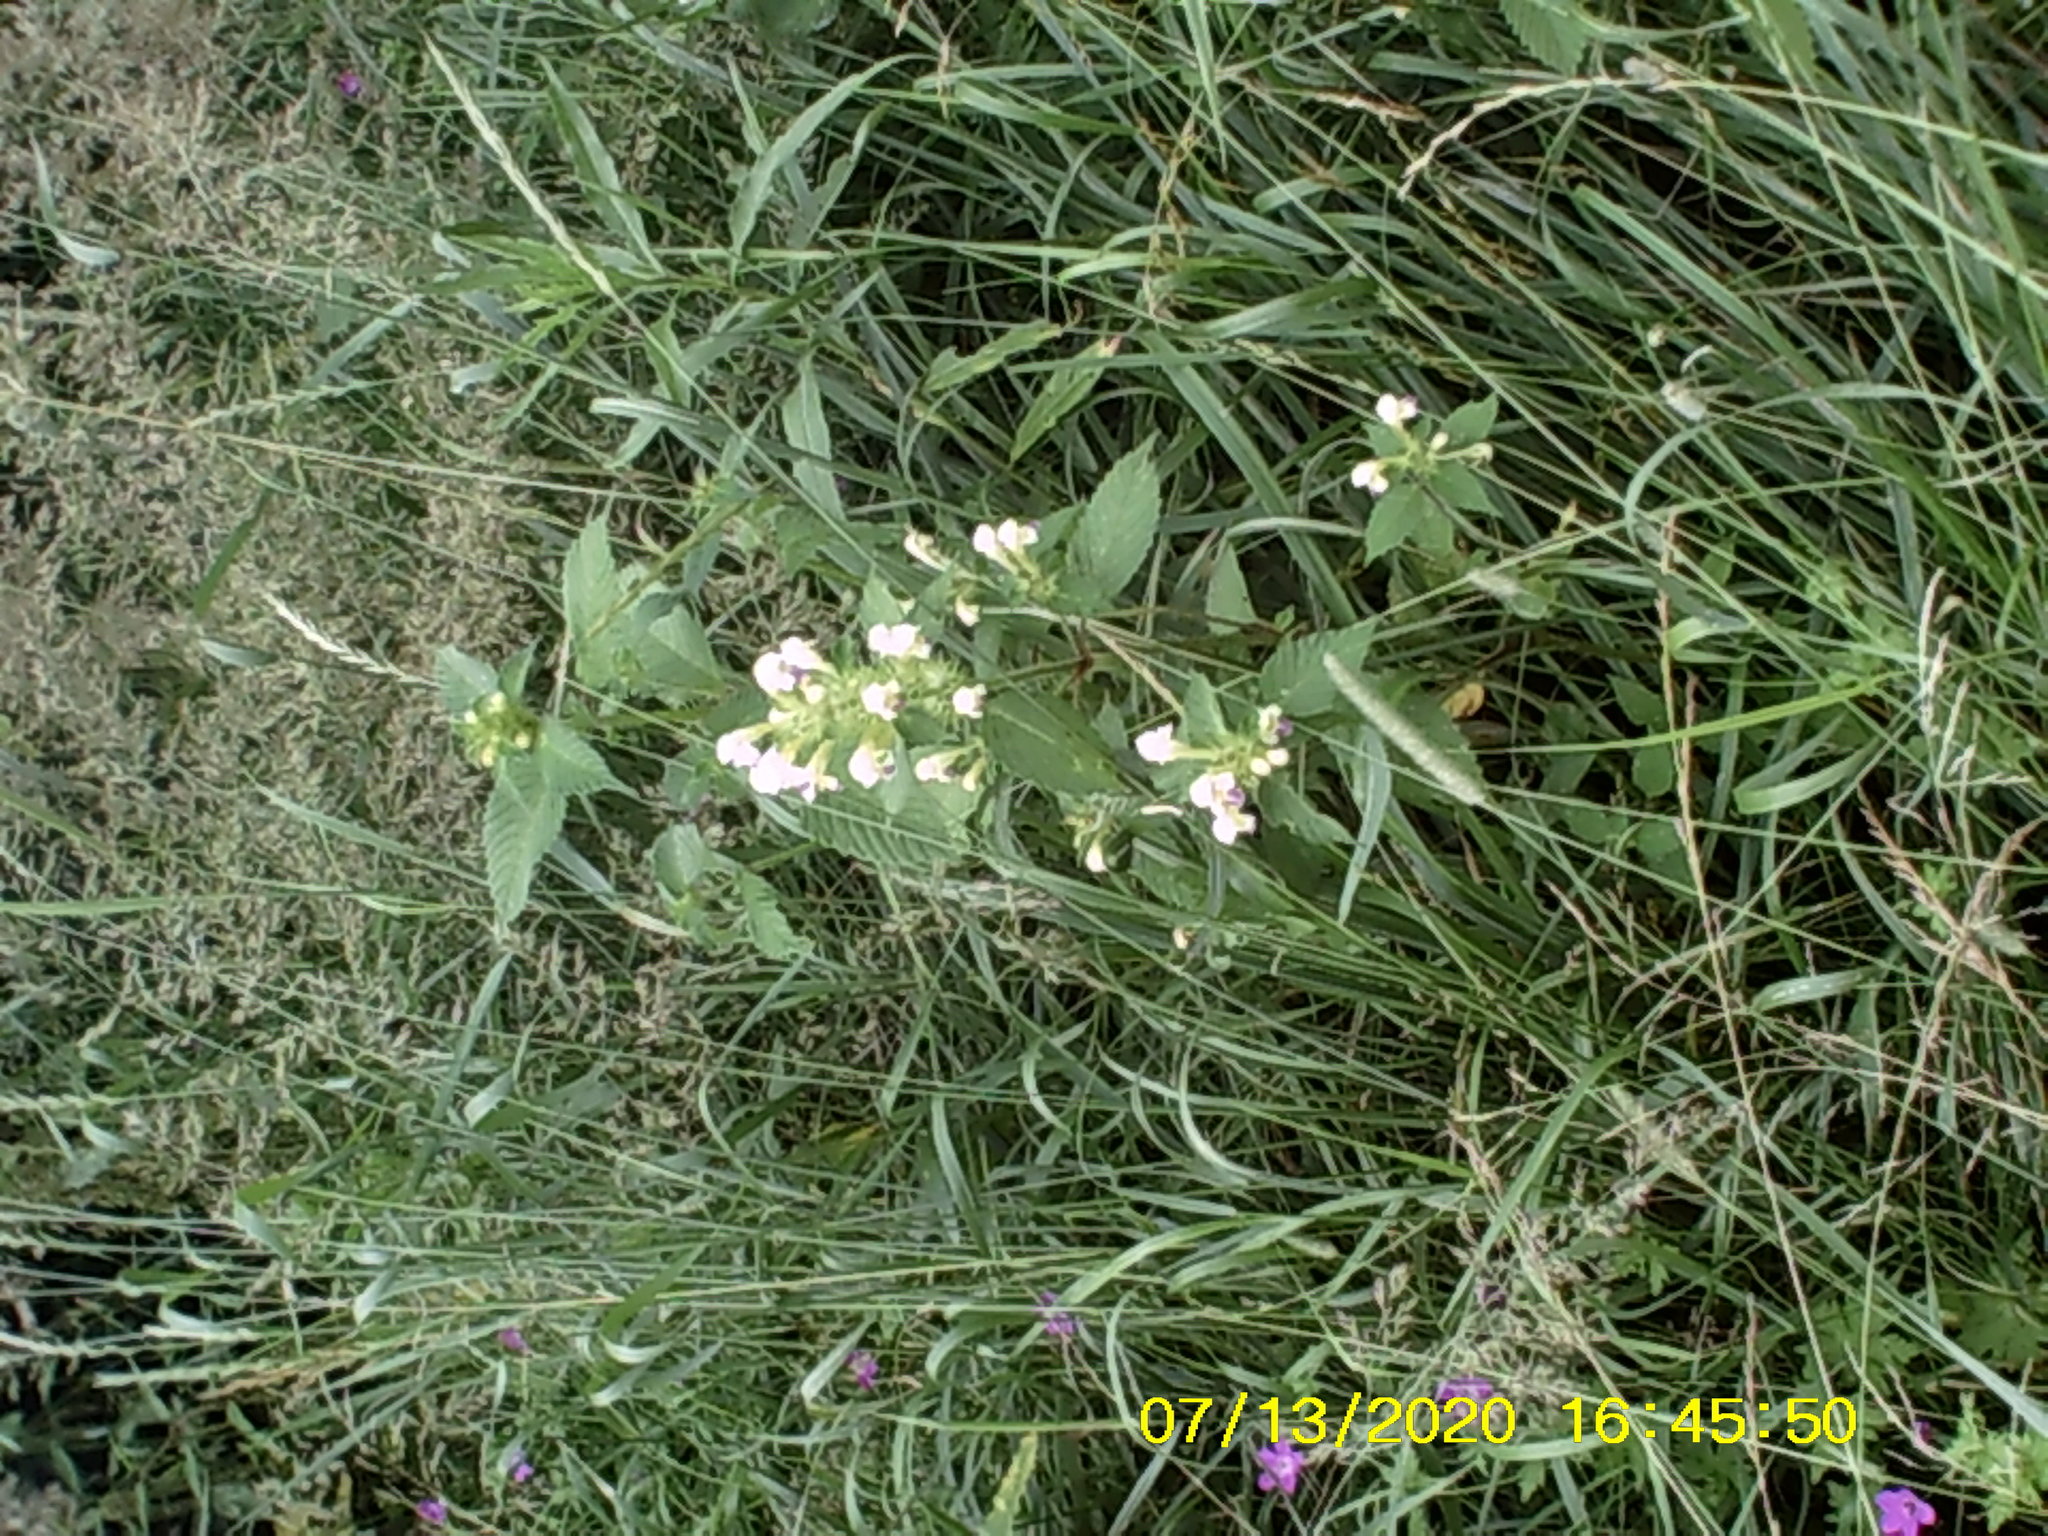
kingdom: Plantae
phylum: Tracheophyta
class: Magnoliopsida
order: Lamiales
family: Lamiaceae
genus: Galeopsis
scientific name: Galeopsis speciosa
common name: Large-flowered hemp-nettle
